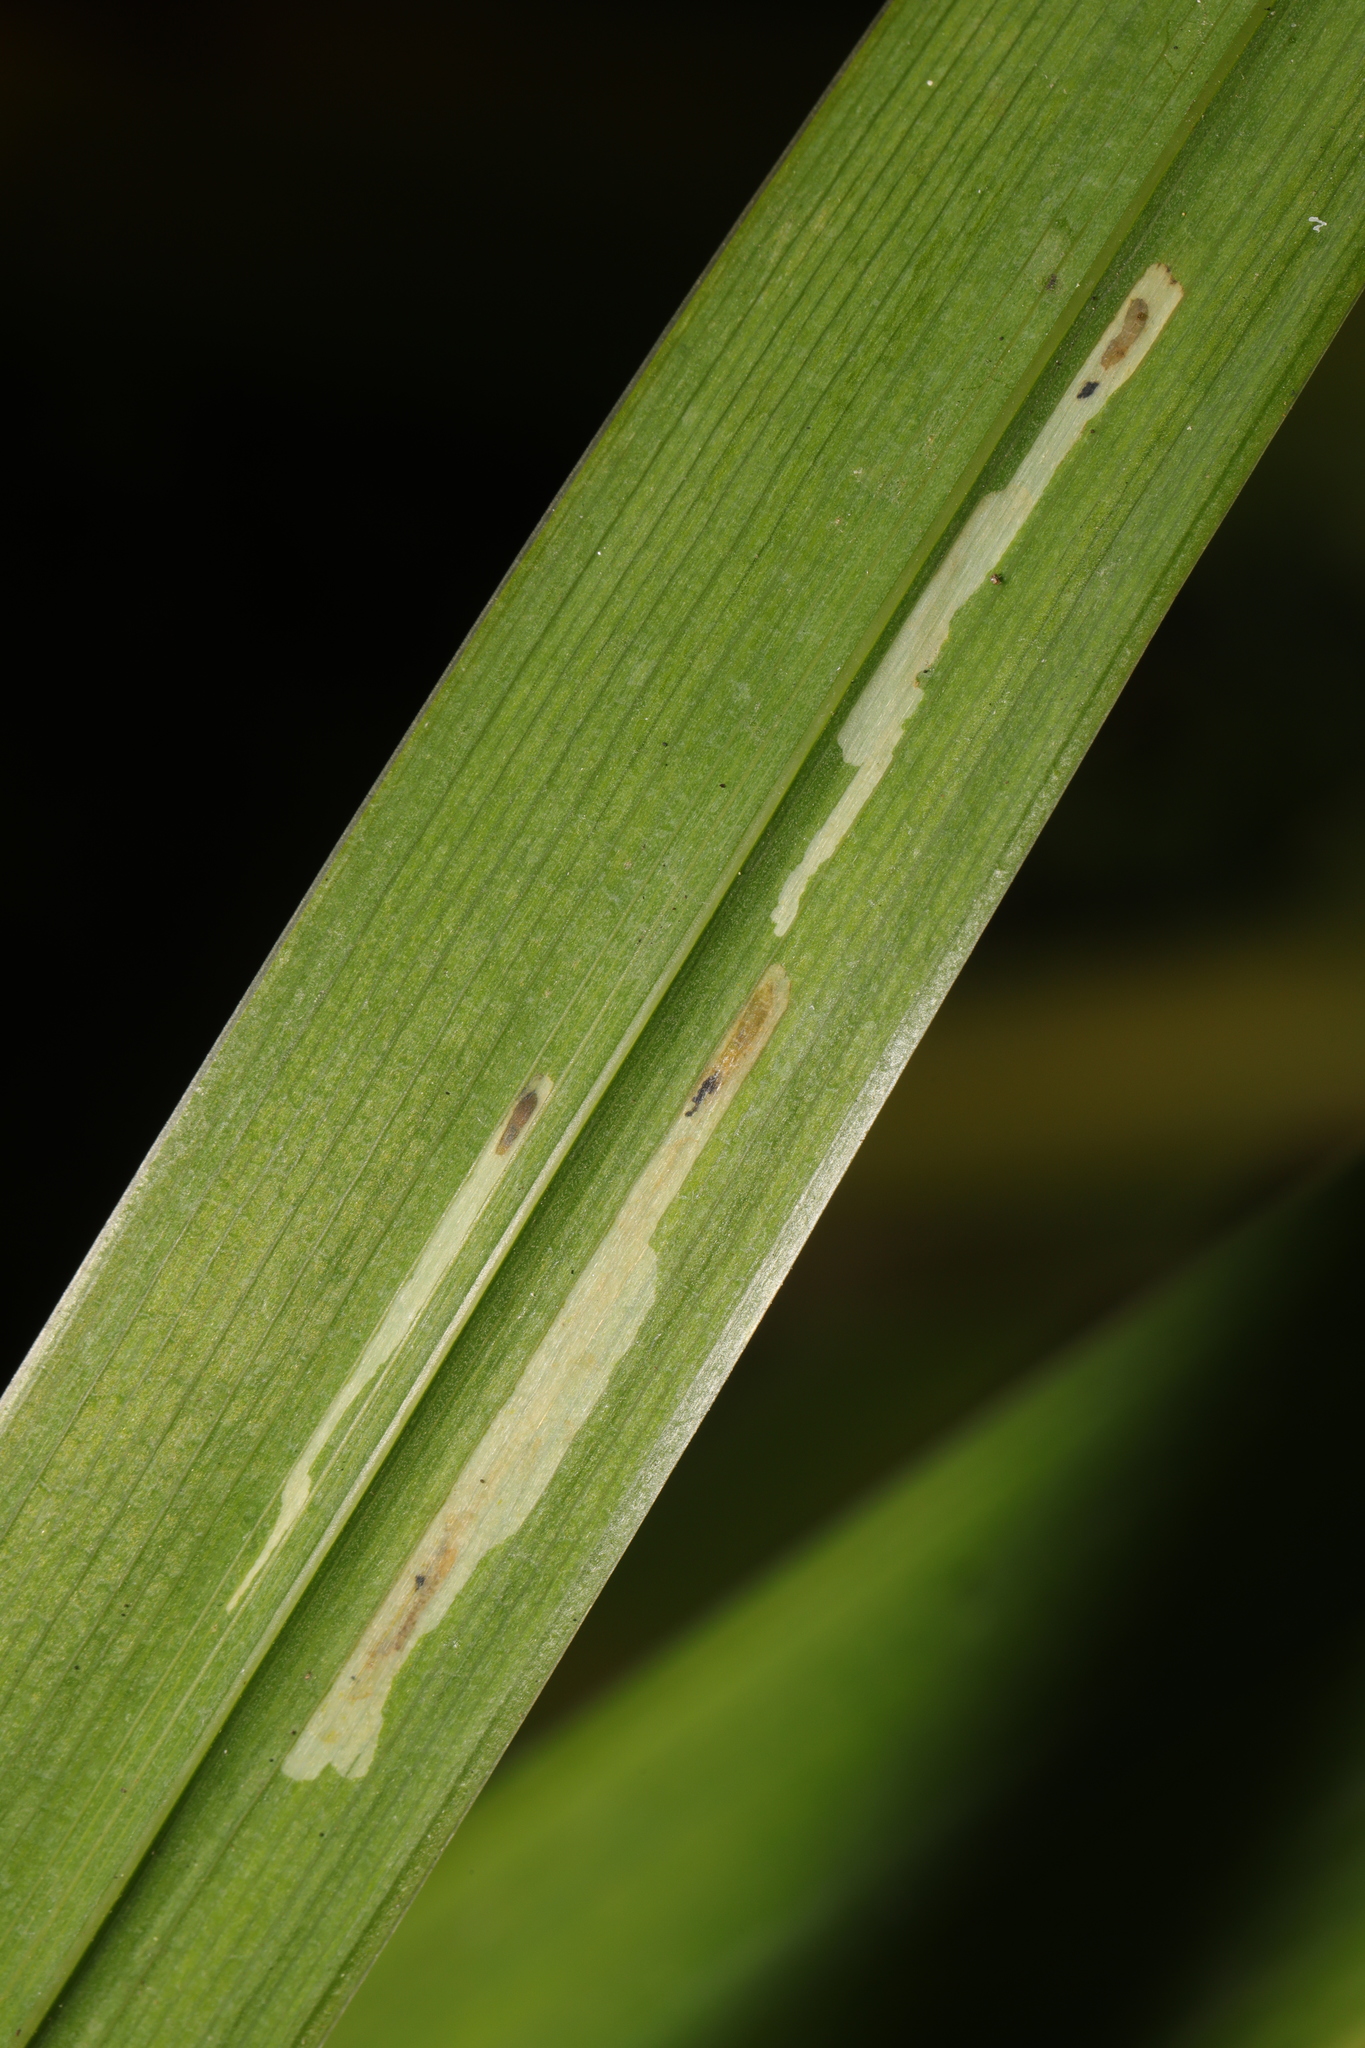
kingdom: Animalia
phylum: Arthropoda
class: Insecta
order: Diptera
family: Agromyzidae
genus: Cerodontha
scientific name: Cerodontha ircos
